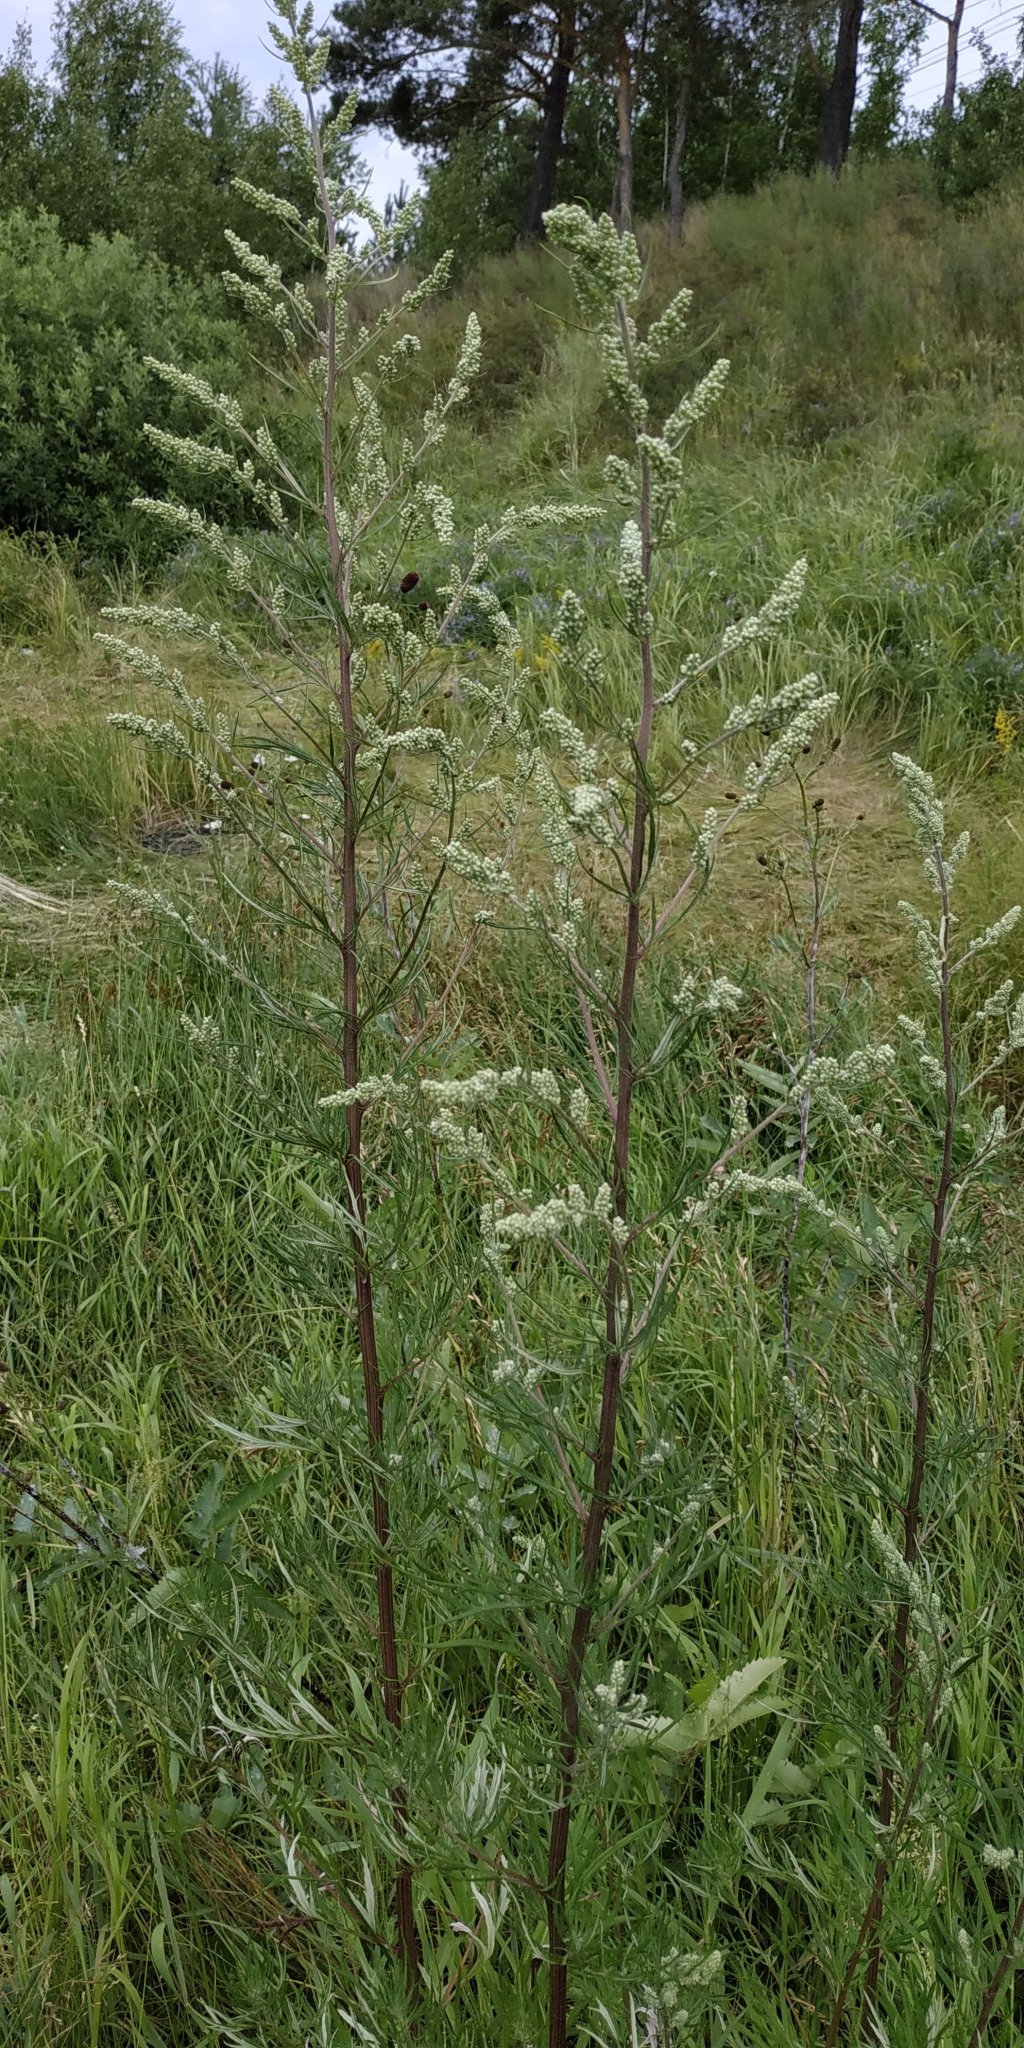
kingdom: Plantae
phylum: Tracheophyta
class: Magnoliopsida
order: Asterales
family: Asteraceae
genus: Artemisia
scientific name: Artemisia vulgaris
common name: Mugwort
